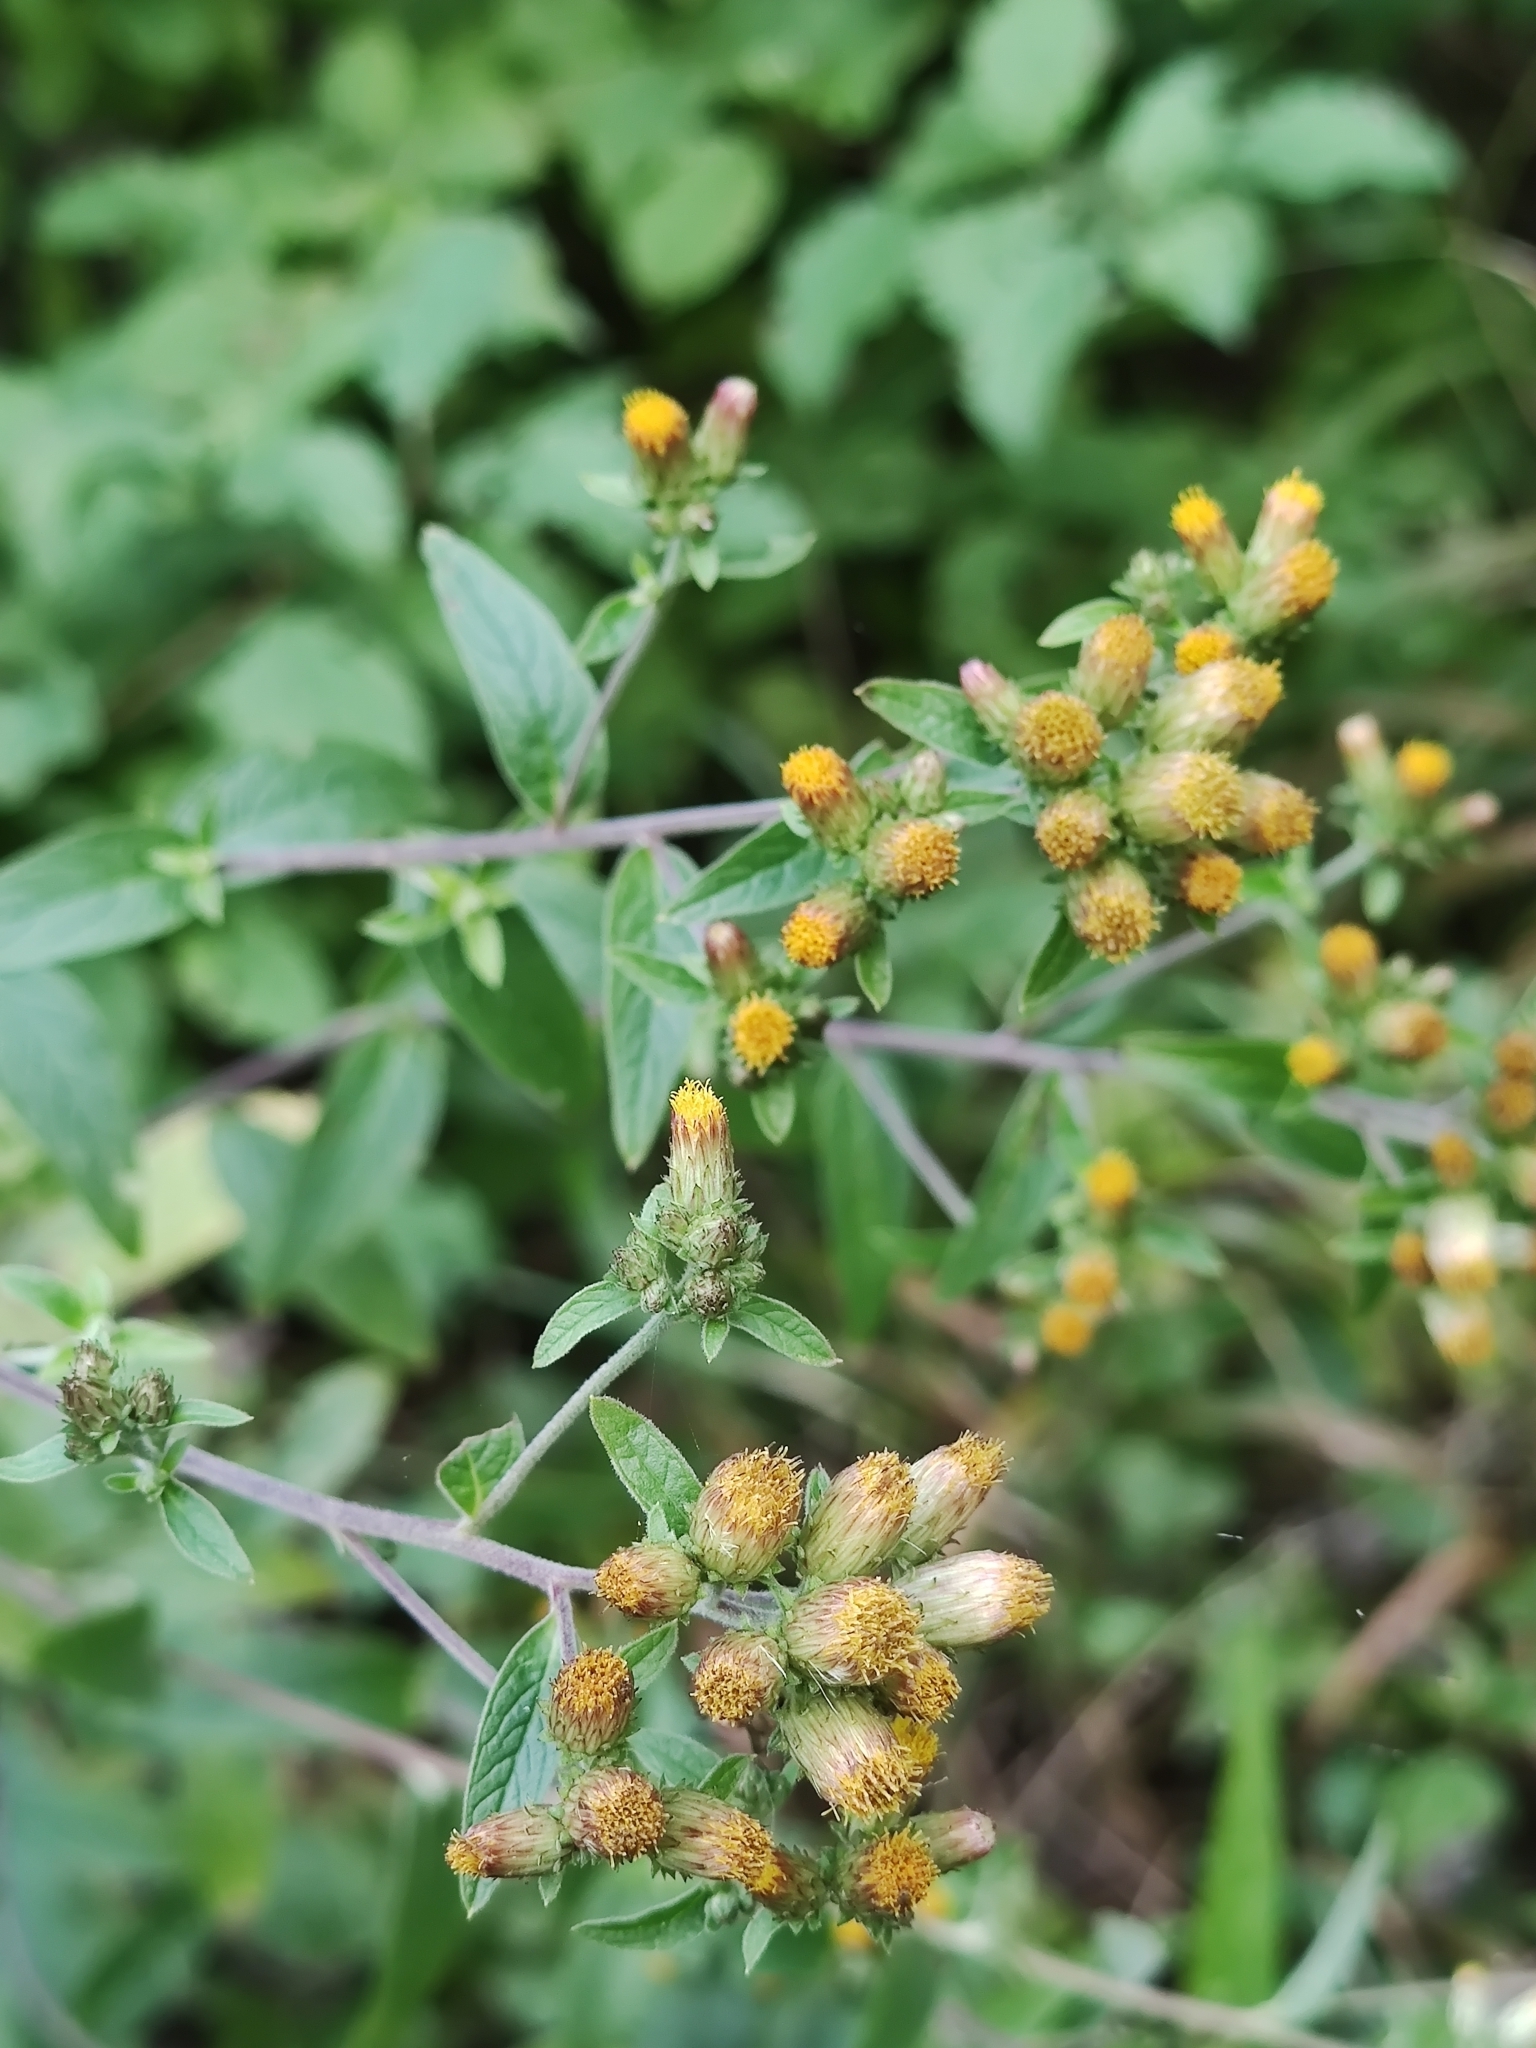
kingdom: Plantae
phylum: Tracheophyta
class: Magnoliopsida
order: Asterales
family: Asteraceae
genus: Pentanema
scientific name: Pentanema squarrosum
